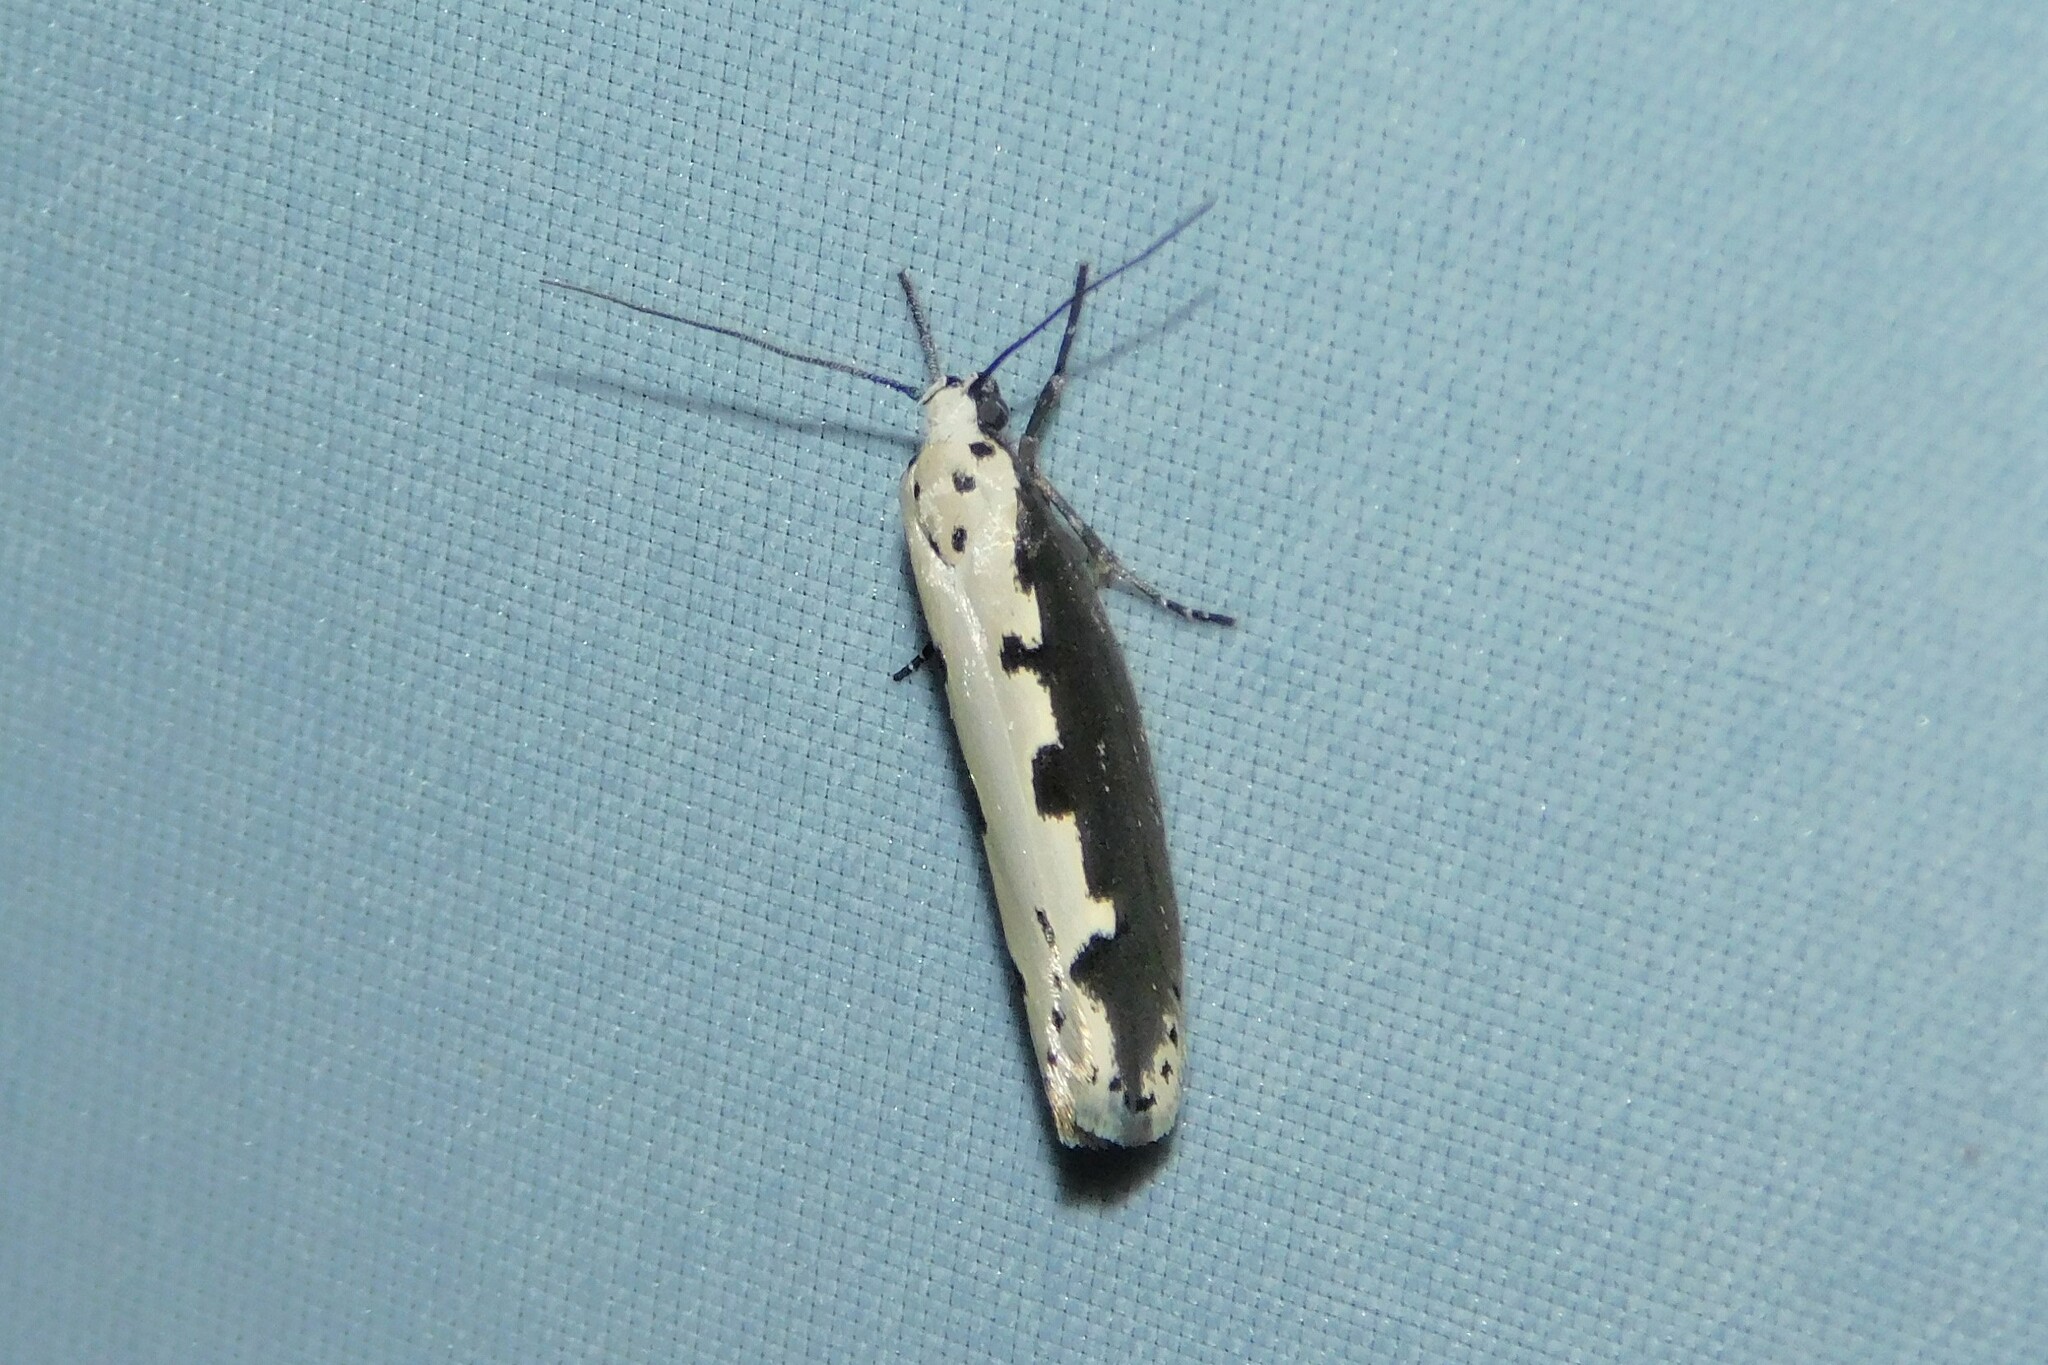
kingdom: Animalia
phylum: Arthropoda
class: Insecta
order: Lepidoptera
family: Ethmiidae
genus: Ethmia
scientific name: Ethmia bipunctella
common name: Bordered ermel
